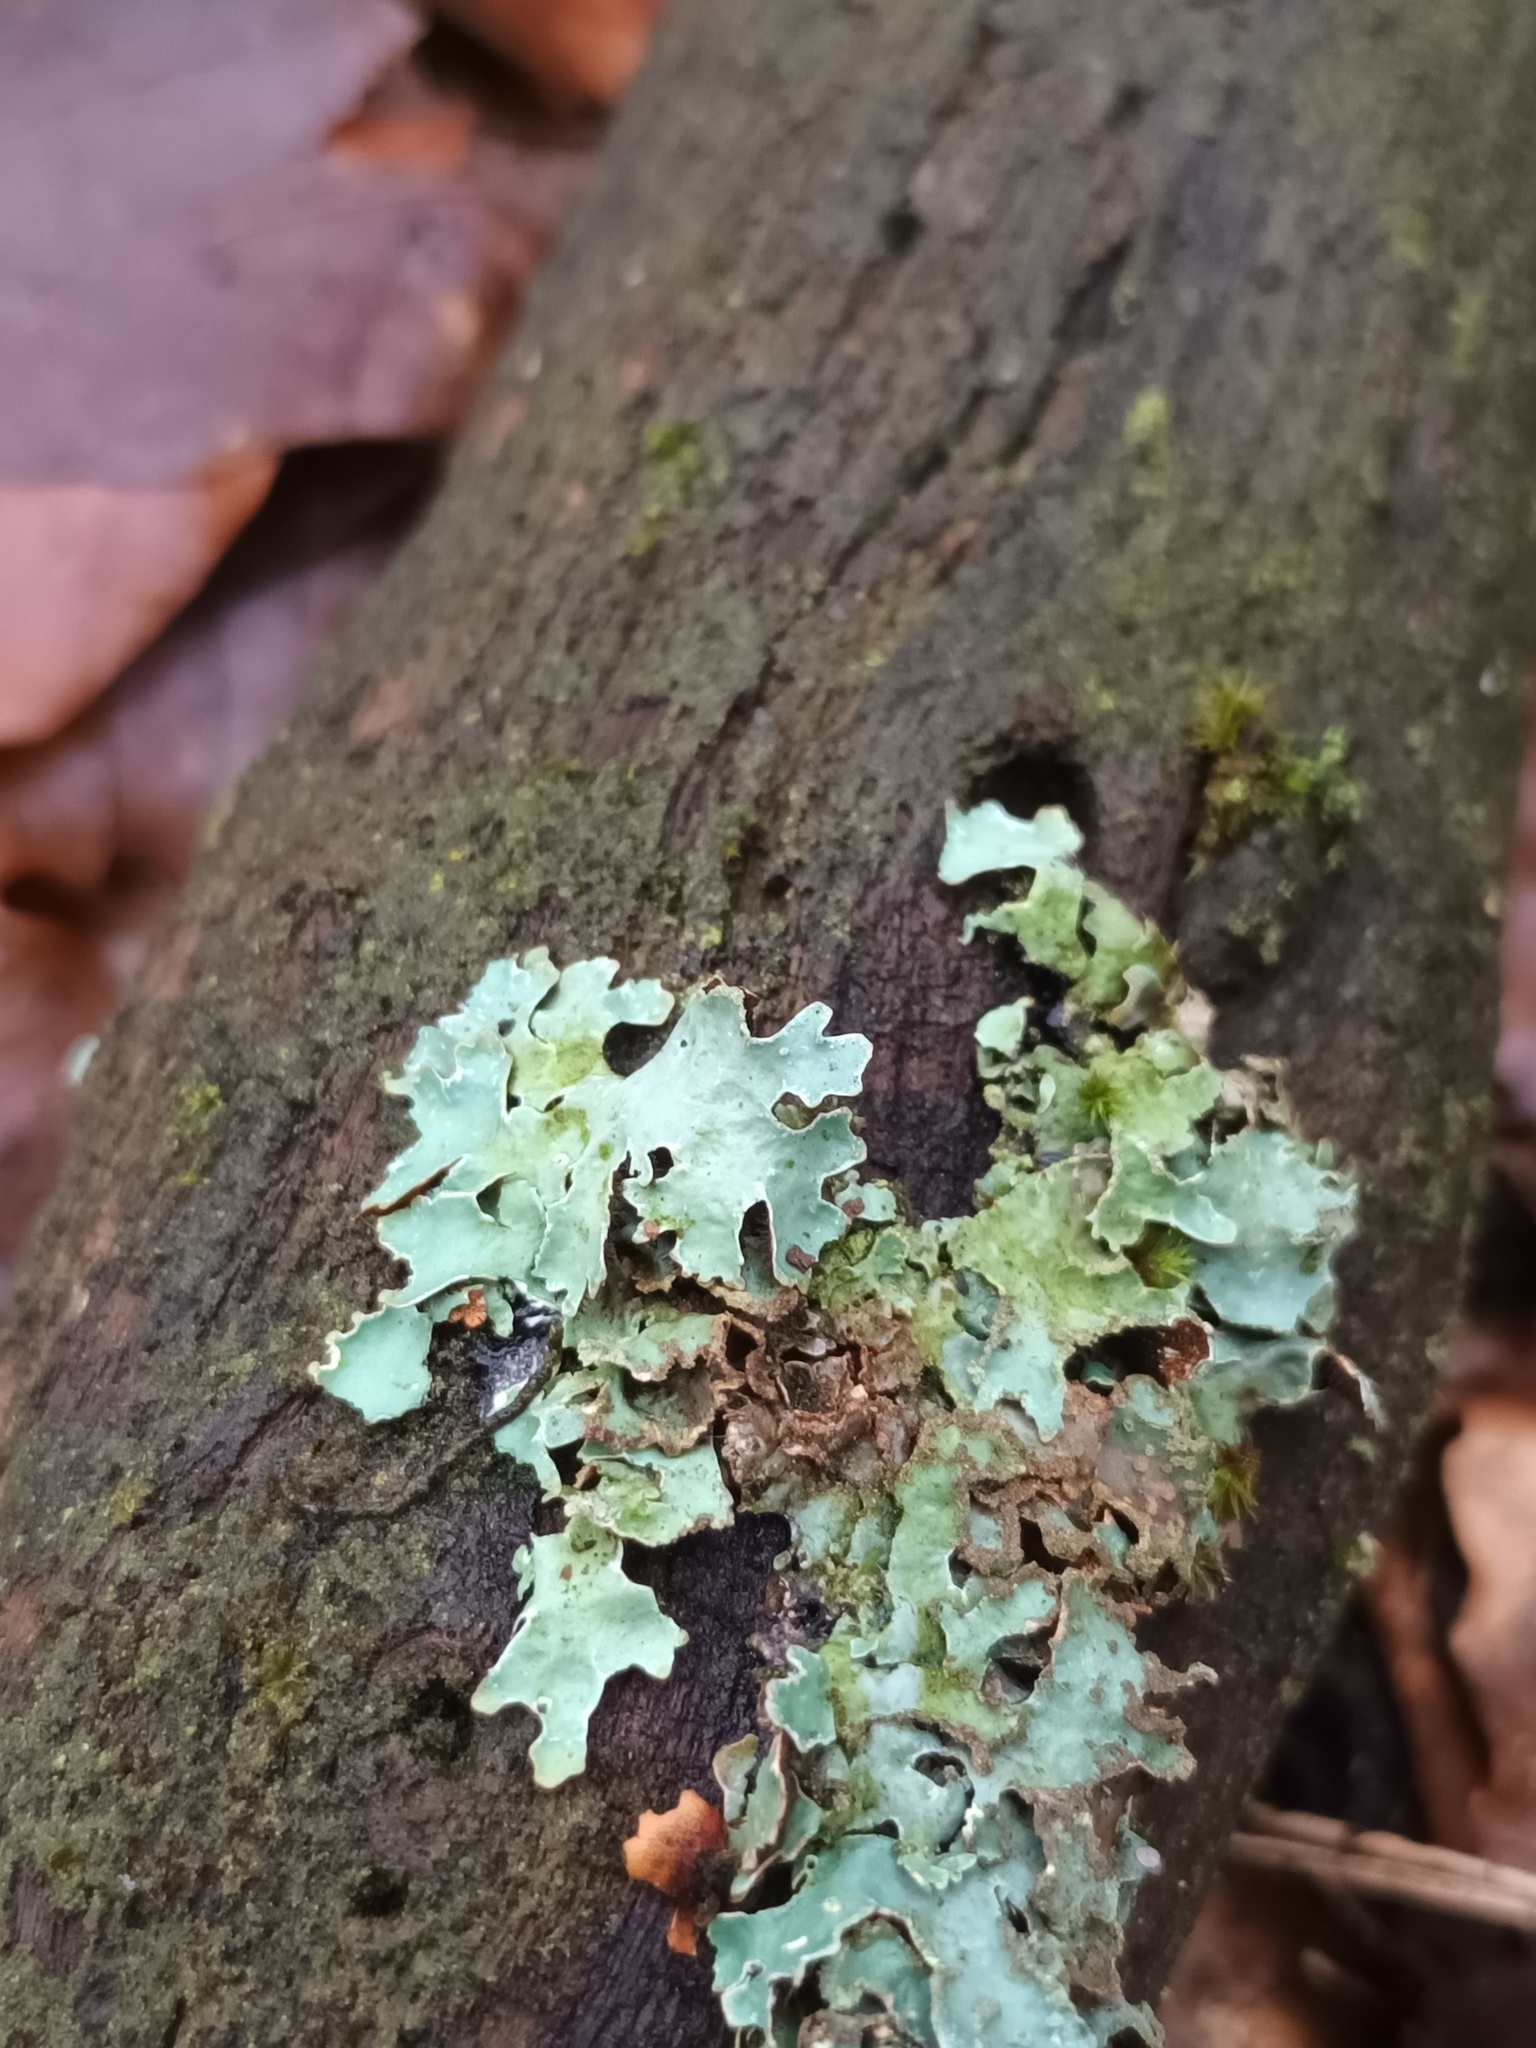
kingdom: Fungi
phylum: Ascomycota
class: Lecanoromycetes
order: Lecanorales
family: Parmeliaceae
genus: Parmelia
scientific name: Parmelia sulcata
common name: Netted shield lichen
